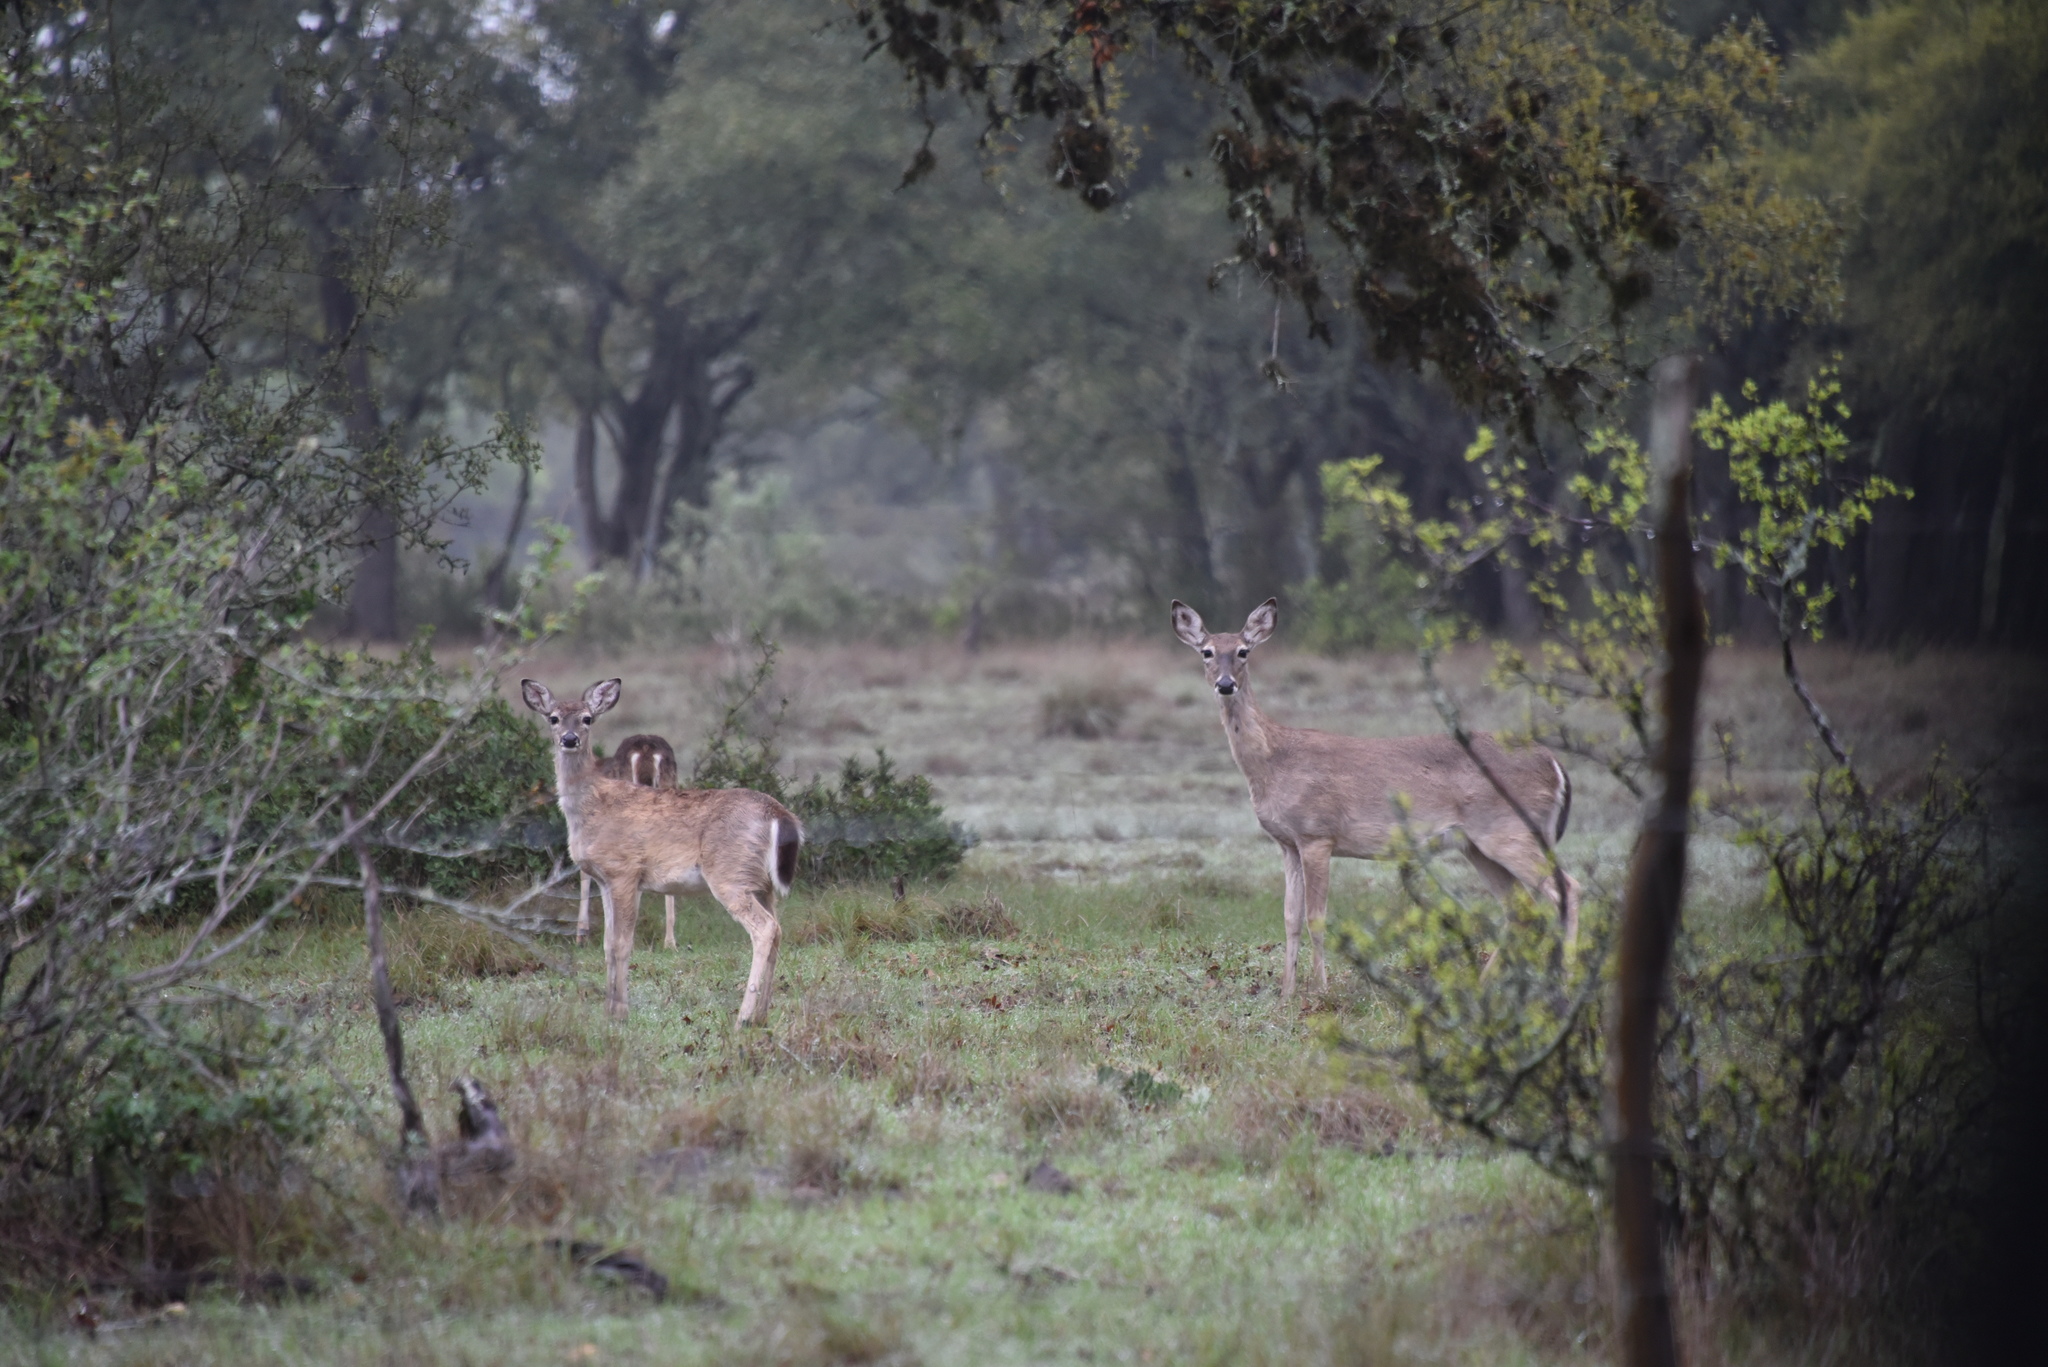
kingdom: Animalia
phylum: Chordata
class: Mammalia
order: Artiodactyla
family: Cervidae
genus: Odocoileus
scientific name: Odocoileus virginianus
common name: White-tailed deer
